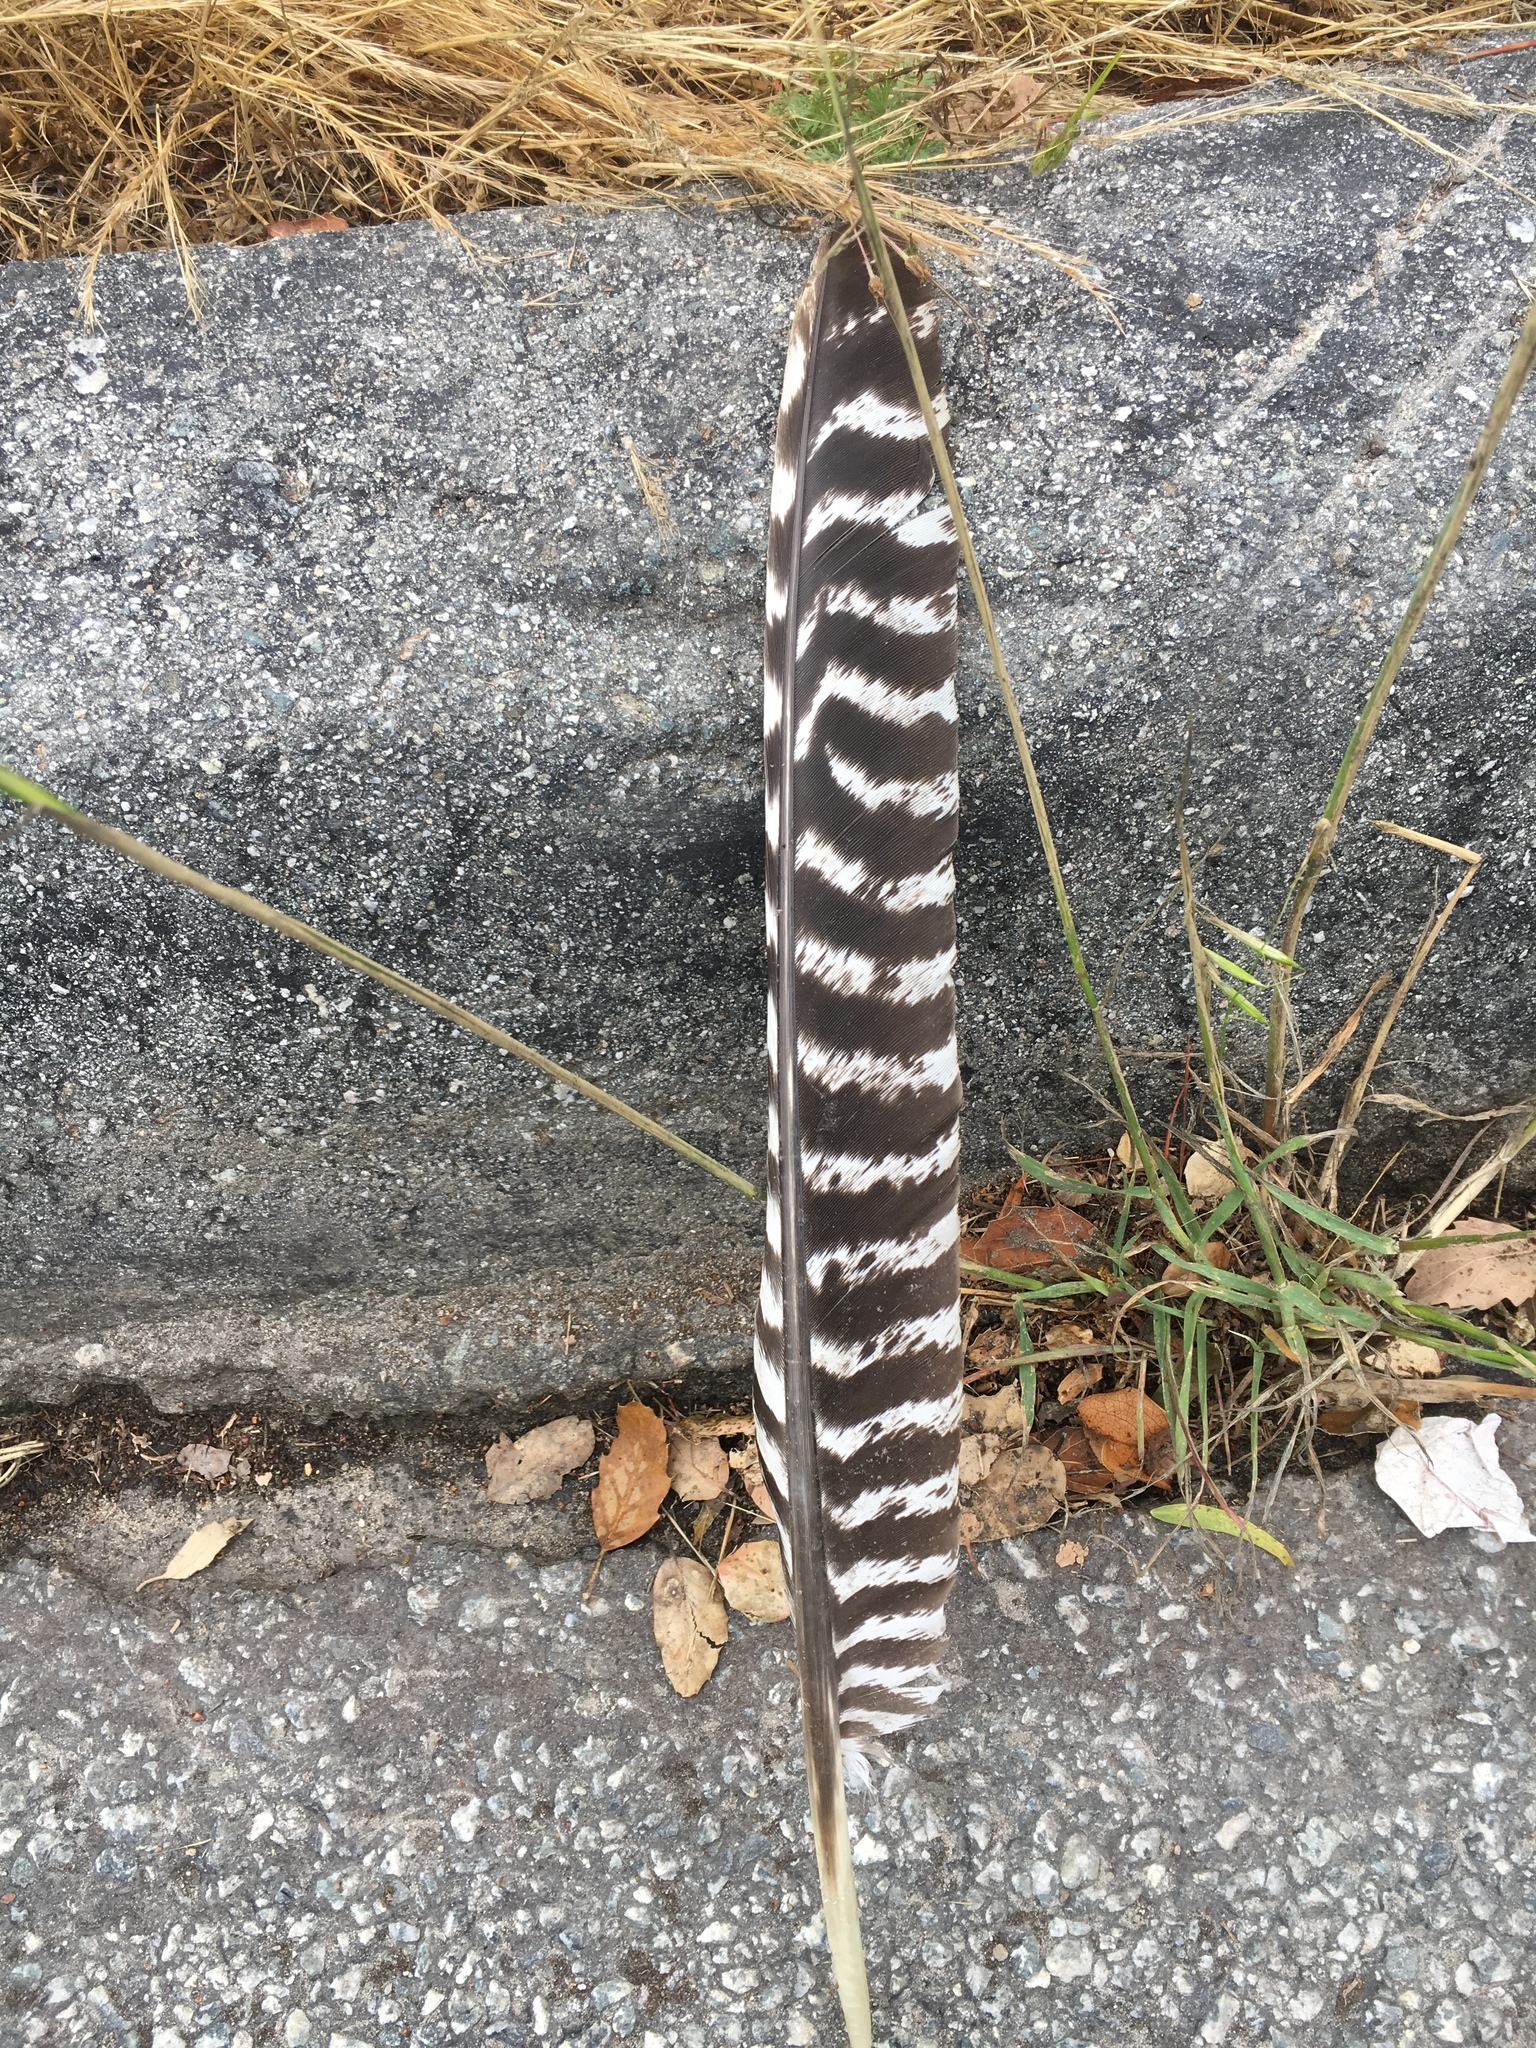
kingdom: Animalia
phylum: Chordata
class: Aves
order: Galliformes
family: Phasianidae
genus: Meleagris
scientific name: Meleagris gallopavo
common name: Wild turkey
